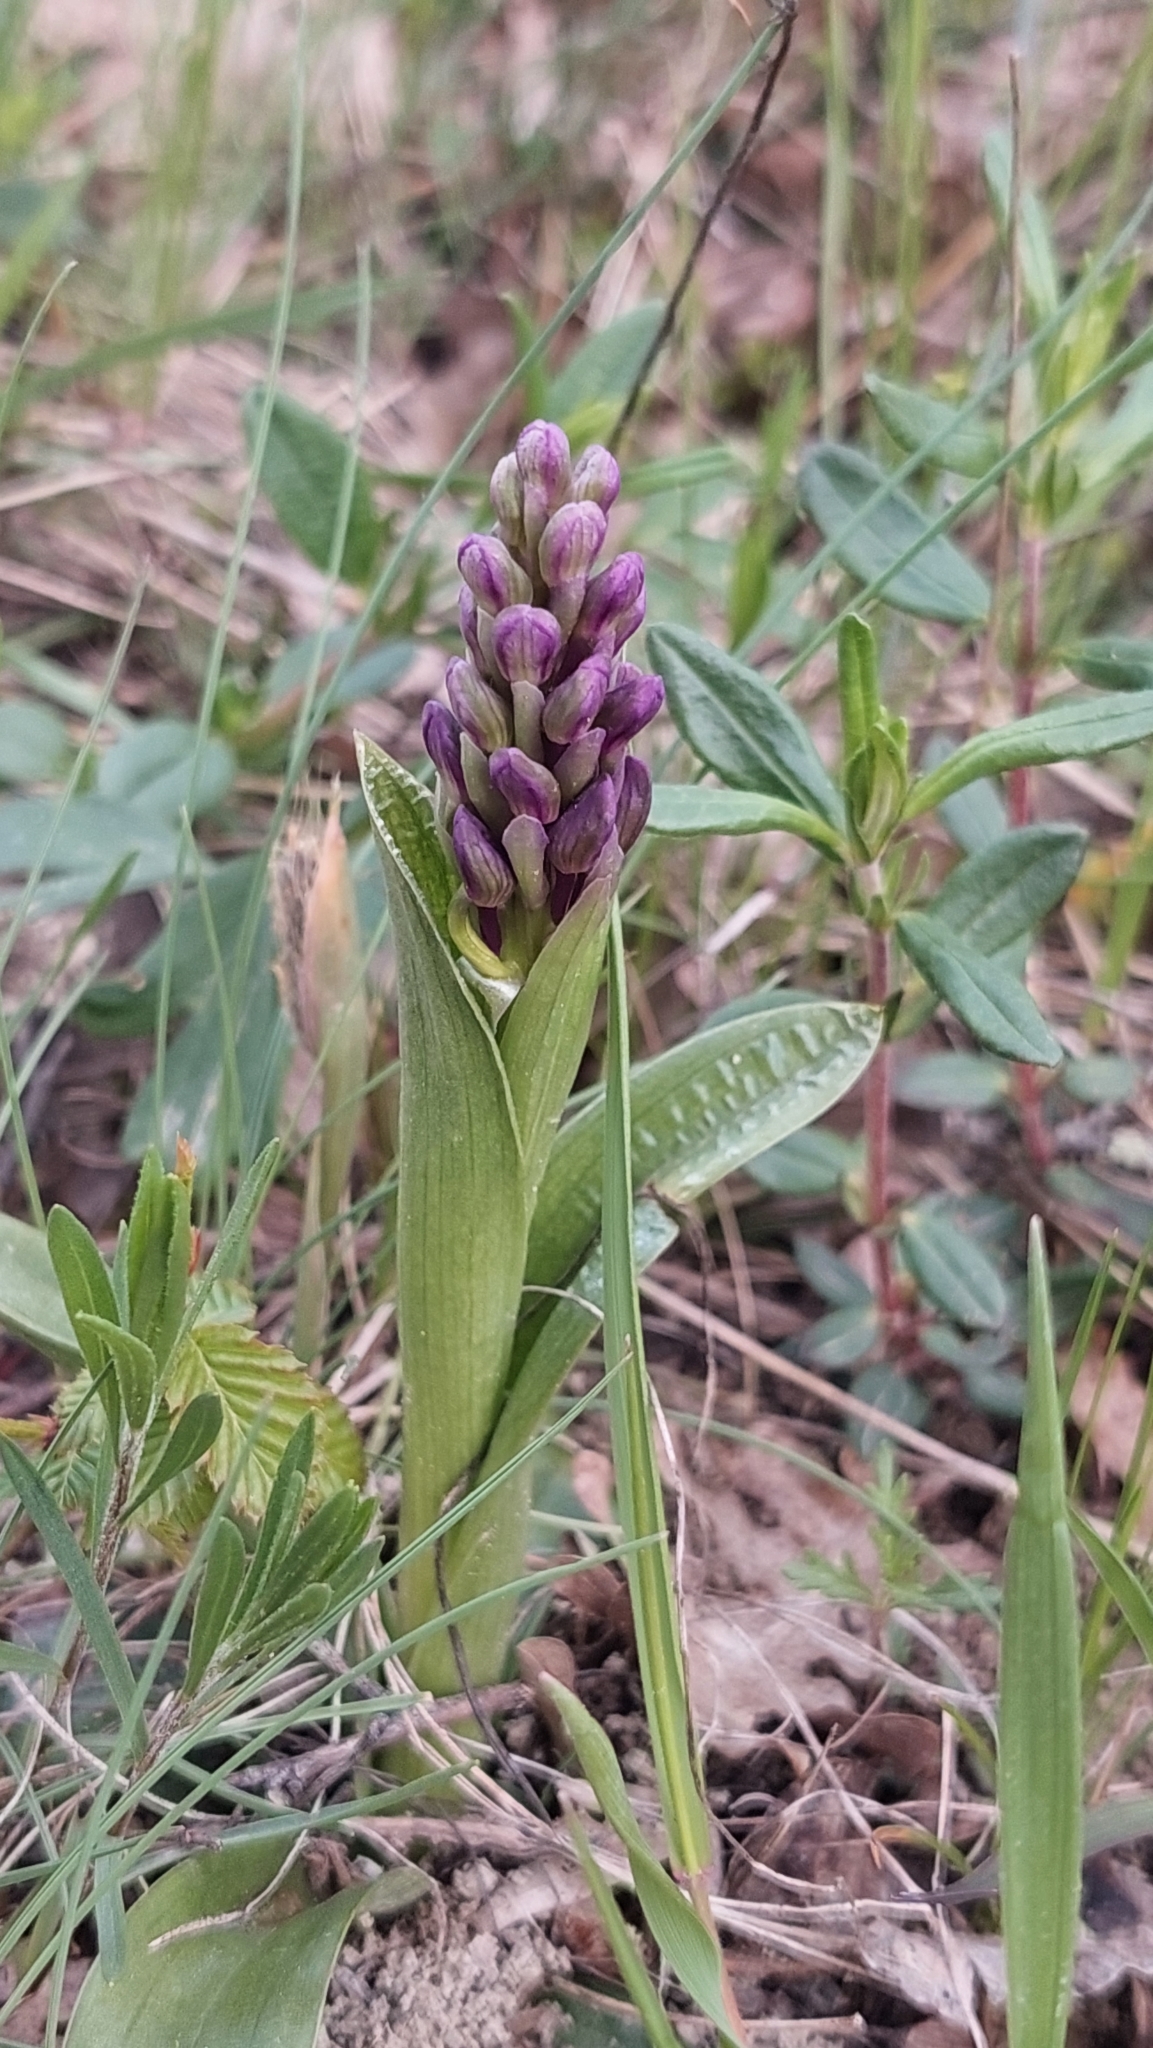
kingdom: Plantae
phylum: Tracheophyta
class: Liliopsida
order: Asparagales
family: Orchidaceae
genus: Anacamptis
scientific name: Anacamptis morio
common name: Green-winged orchid
